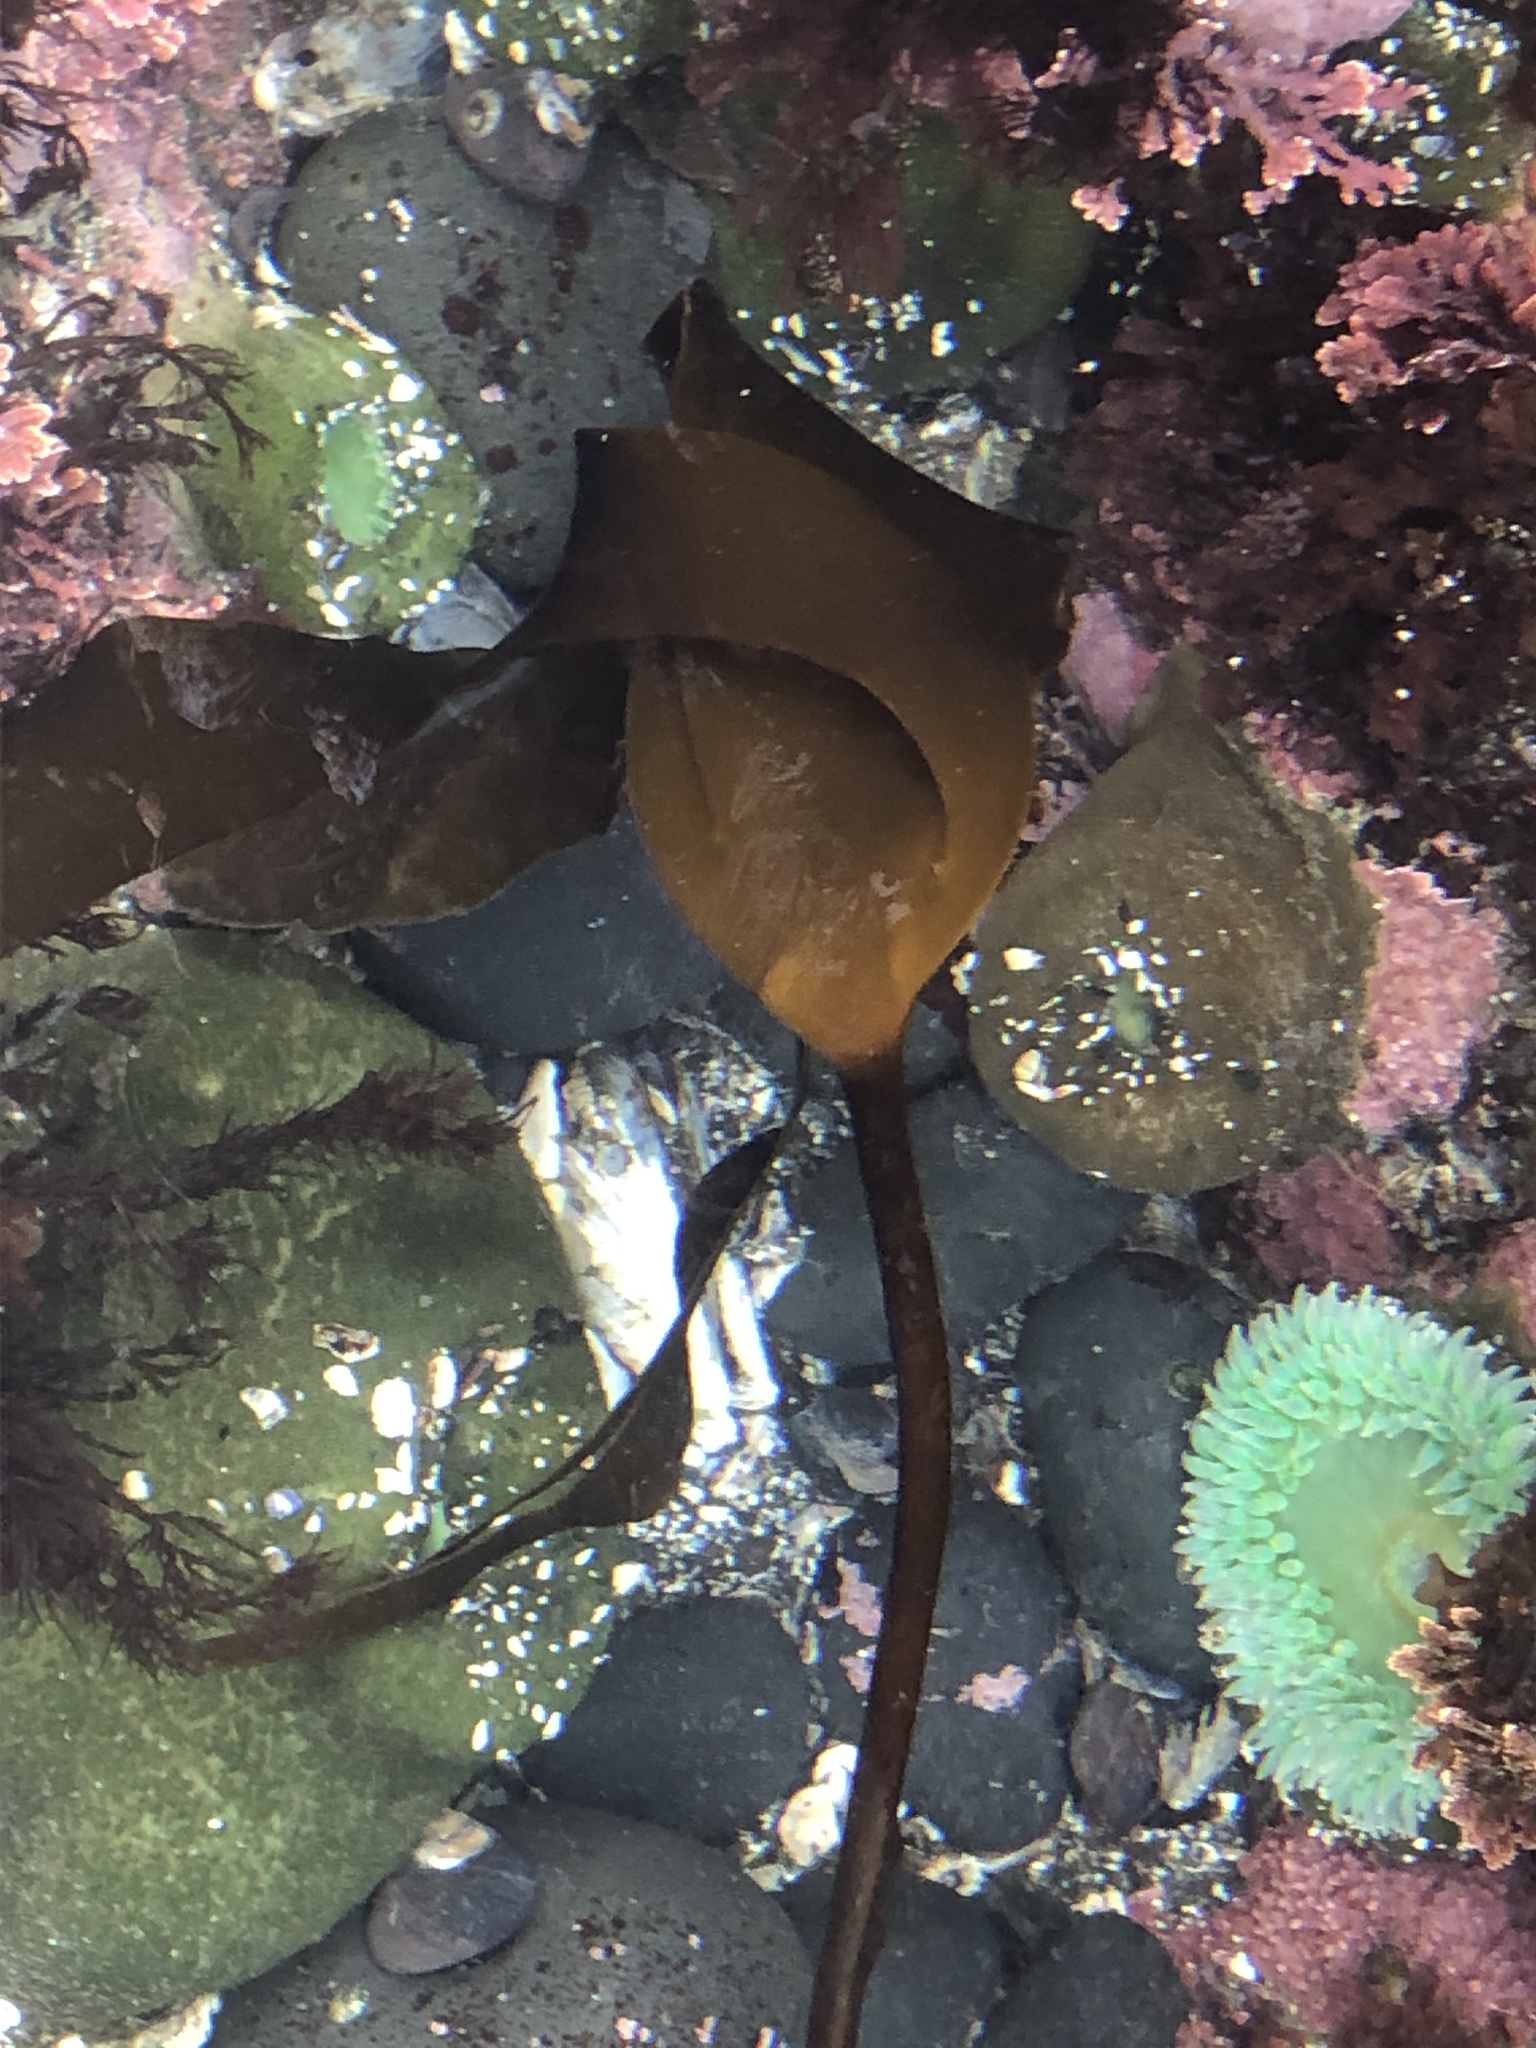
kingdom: Chromista
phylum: Ochrophyta
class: Phaeophyceae
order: Laminariales
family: Laminariaceae
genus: Laminaria
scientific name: Laminaria setchellii
